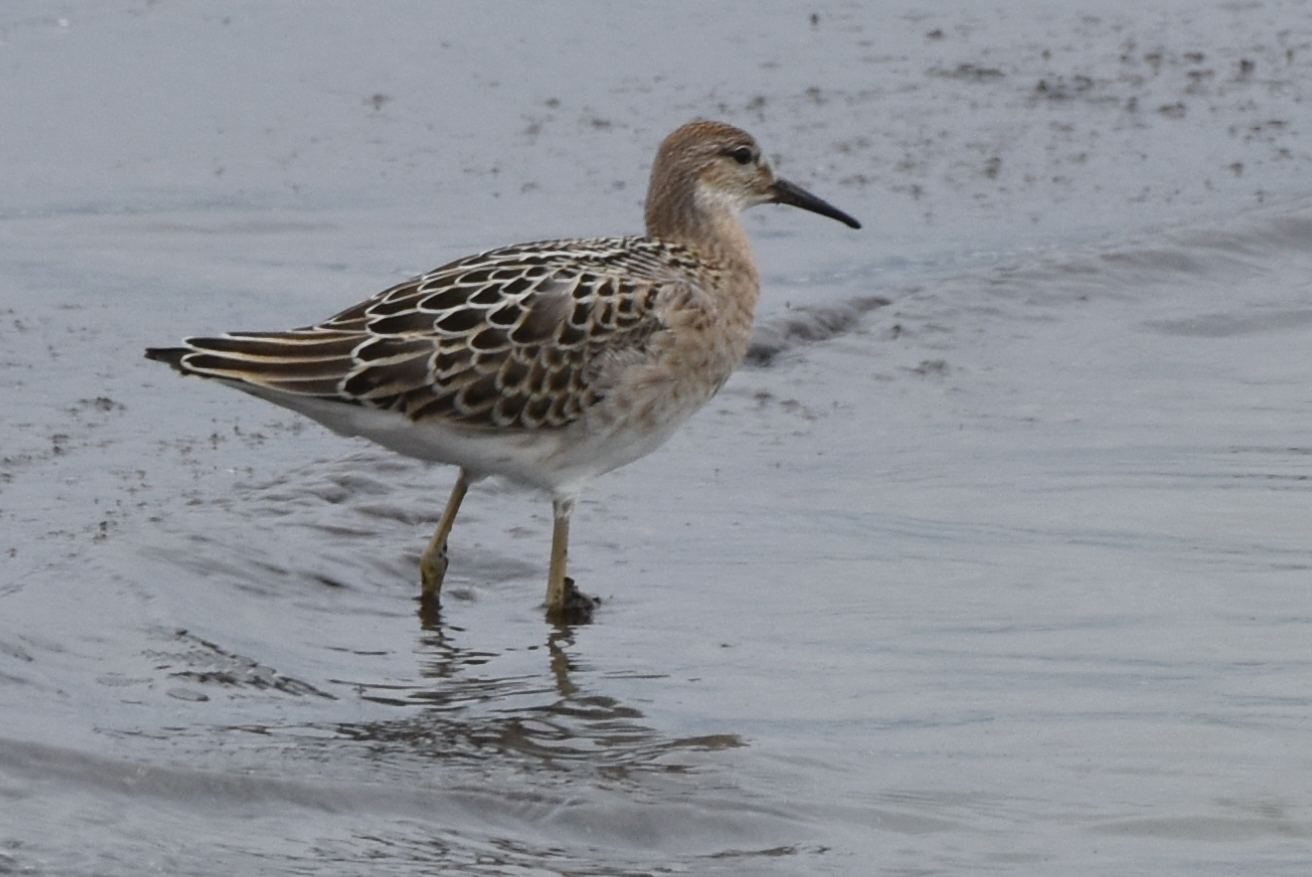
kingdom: Animalia
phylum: Chordata
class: Aves
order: Charadriiformes
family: Scolopacidae
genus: Calidris
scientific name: Calidris pugnax
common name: Ruff
